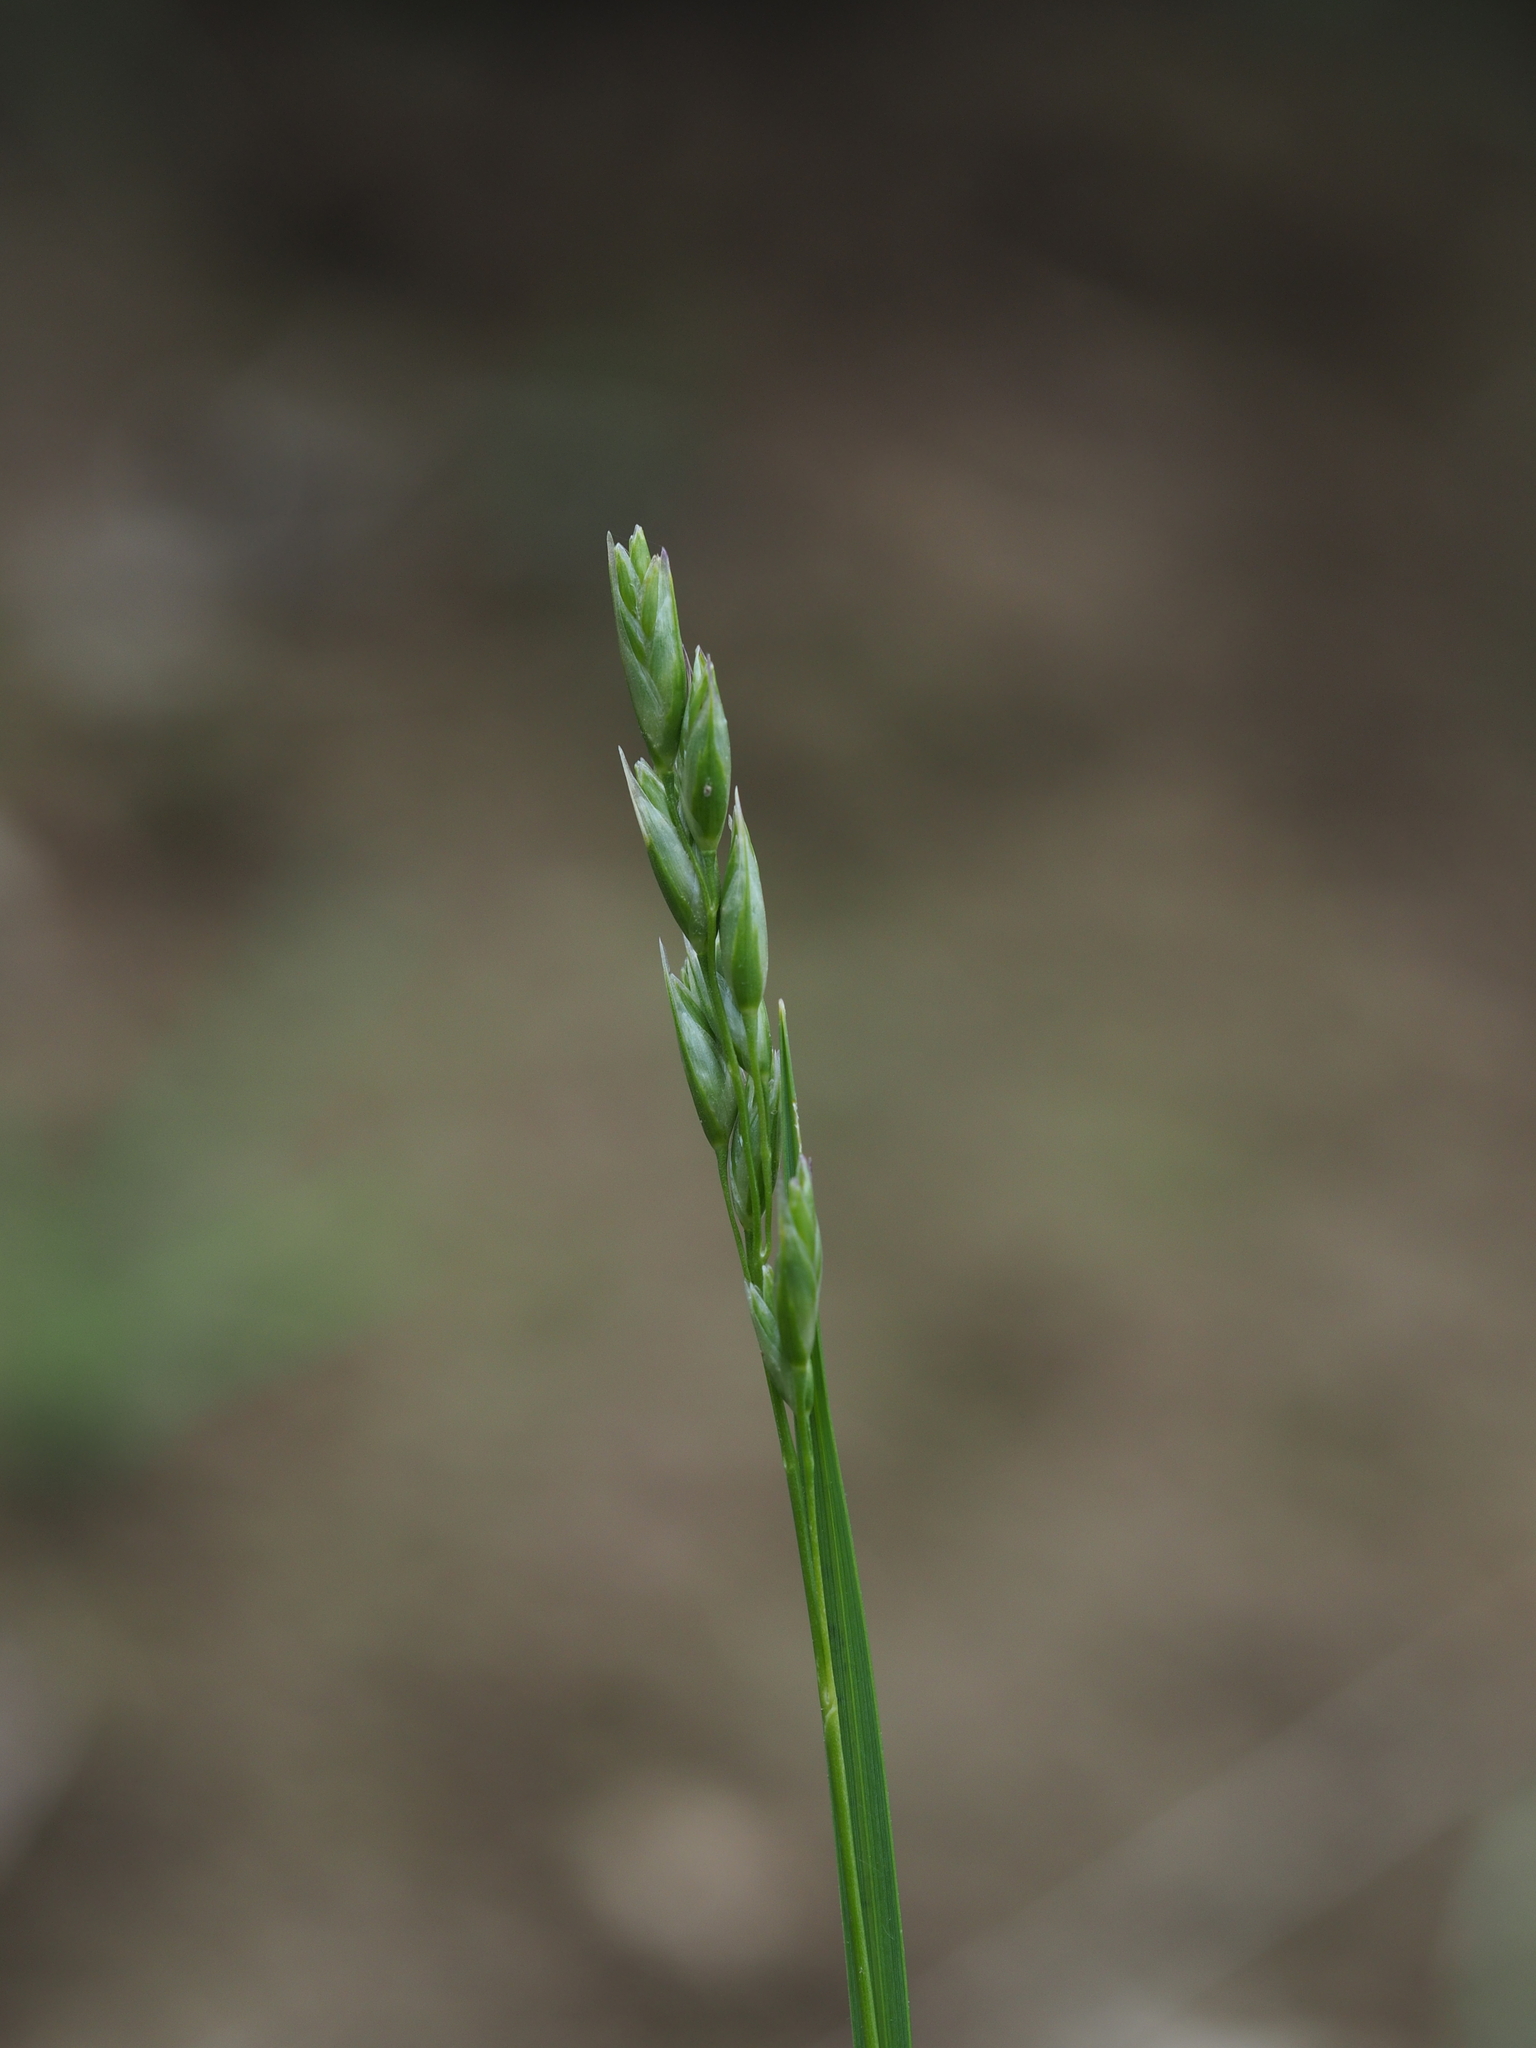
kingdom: Plantae
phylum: Tracheophyta
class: Liliopsida
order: Poales
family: Poaceae
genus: Danthonia
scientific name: Danthonia decumbens
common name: Common heathgrass
